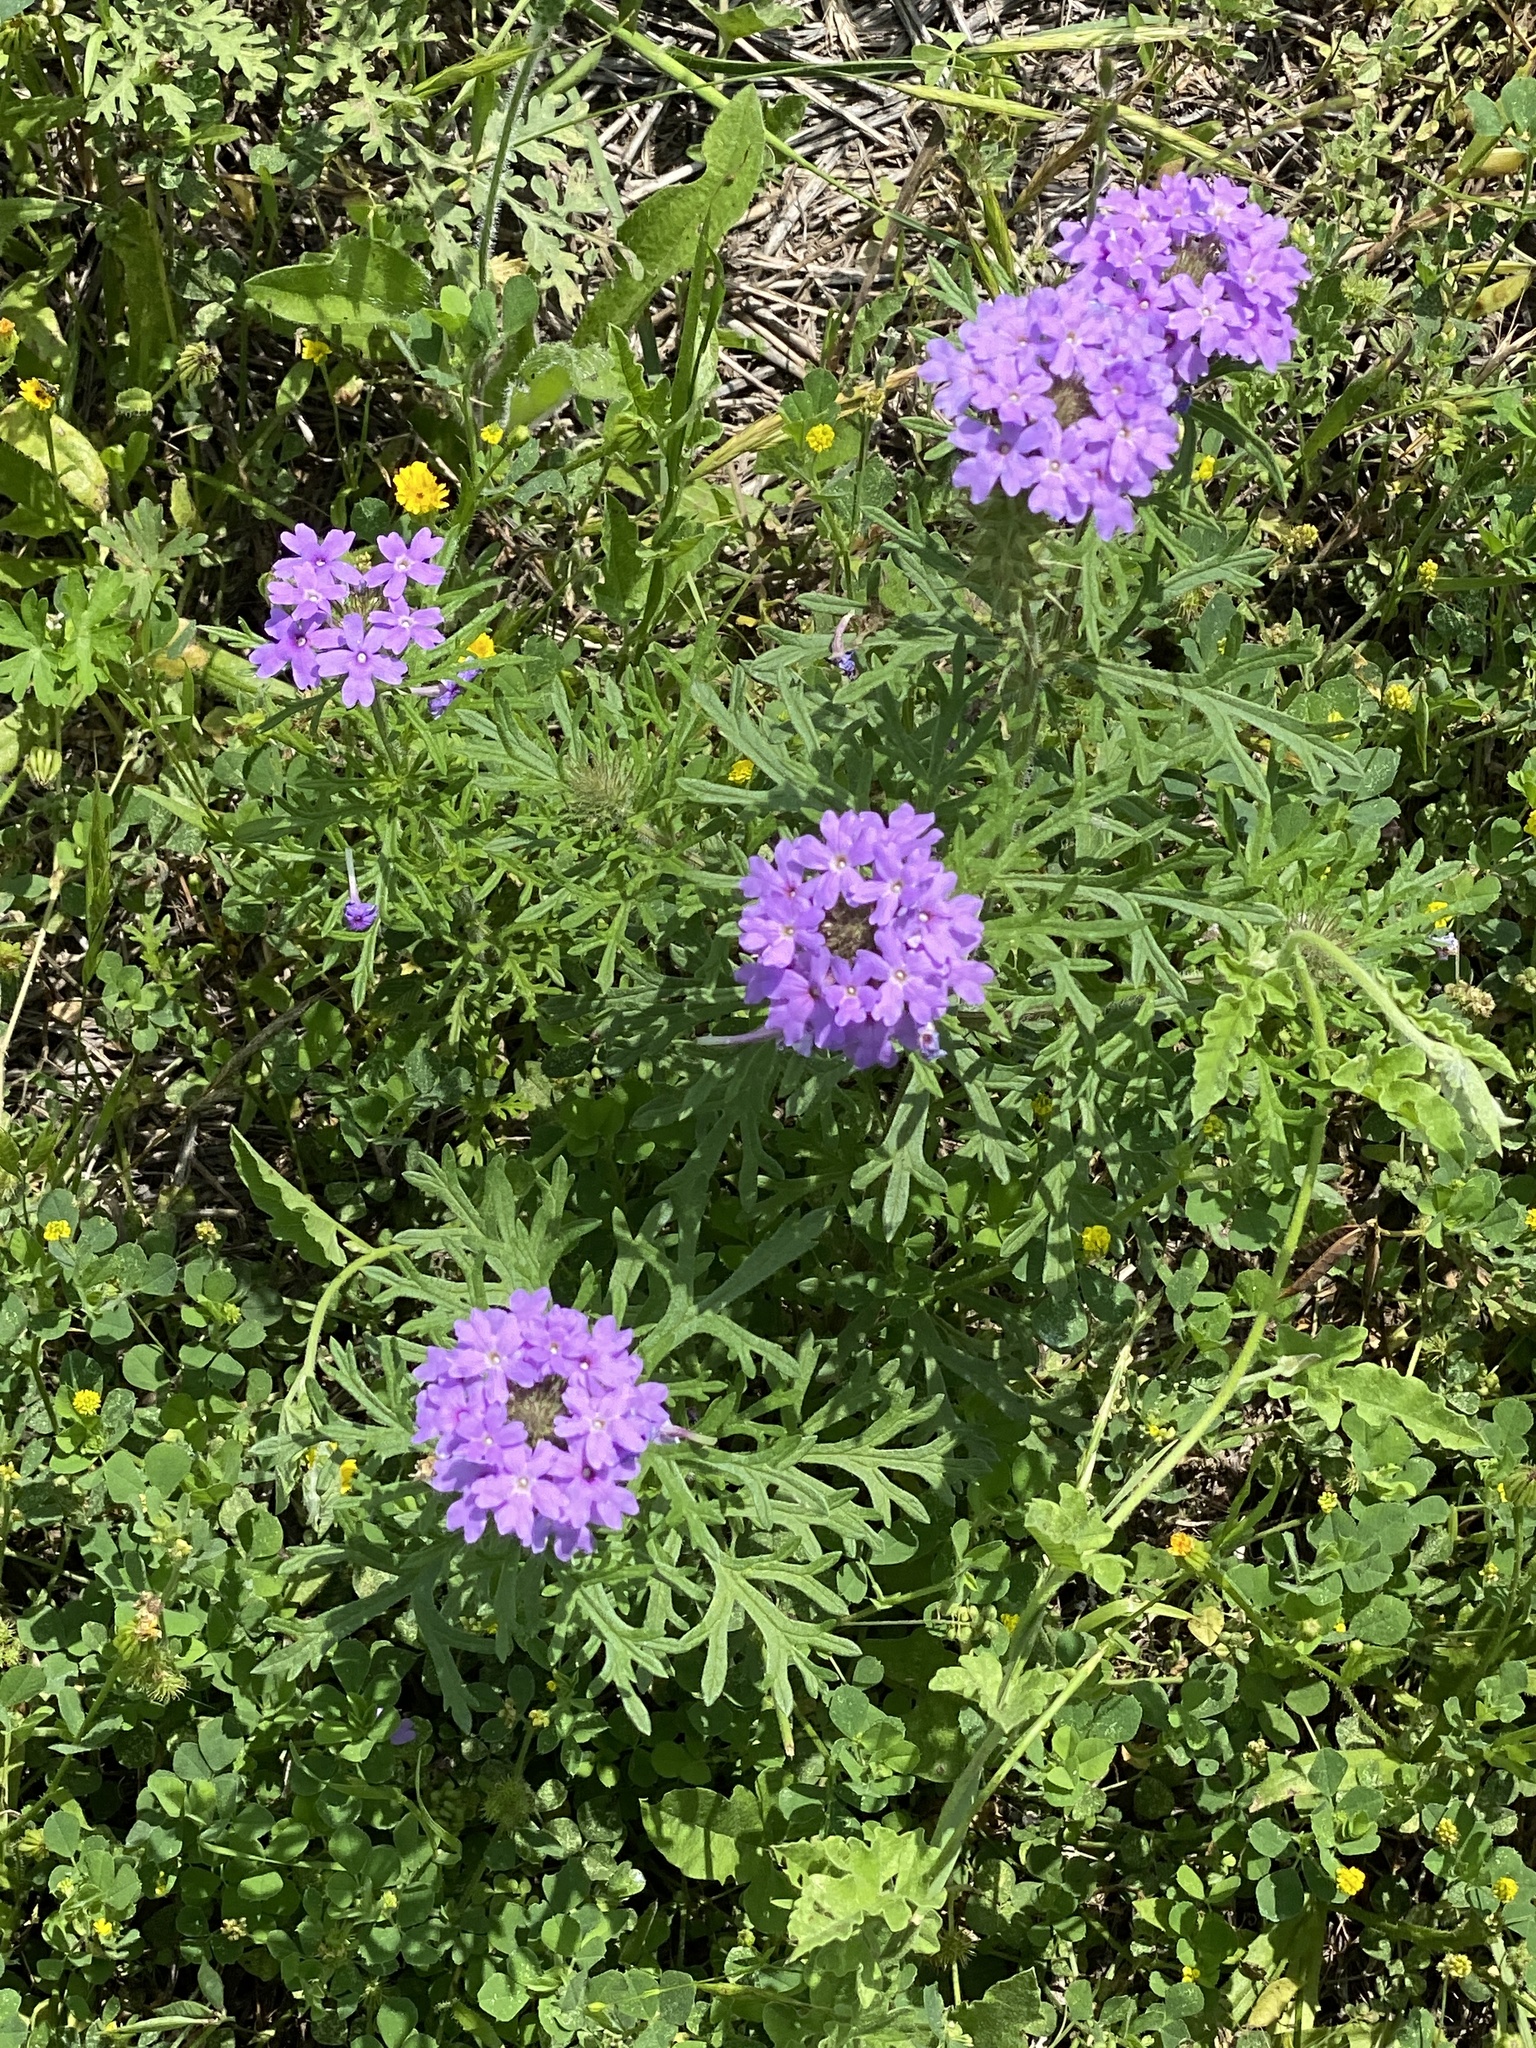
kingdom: Plantae
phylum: Tracheophyta
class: Magnoliopsida
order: Lamiales
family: Verbenaceae
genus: Verbena
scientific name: Verbena bipinnatifida
